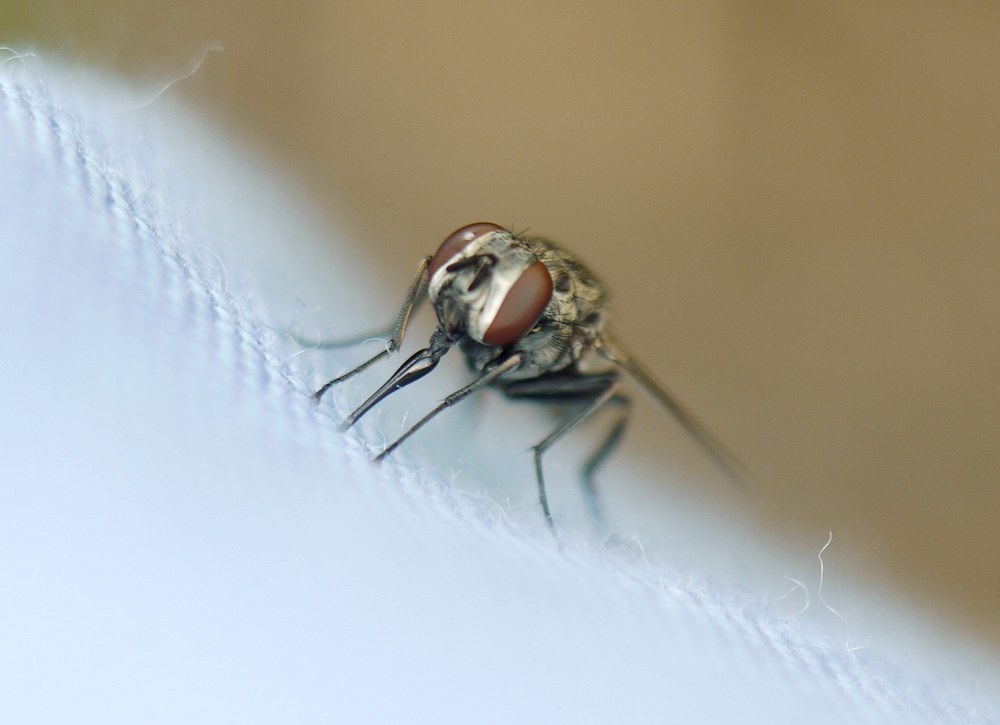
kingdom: Animalia
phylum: Arthropoda
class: Insecta
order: Diptera
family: Muscidae
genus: Stomoxys
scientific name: Stomoxys calcitrans
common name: Stable fly
